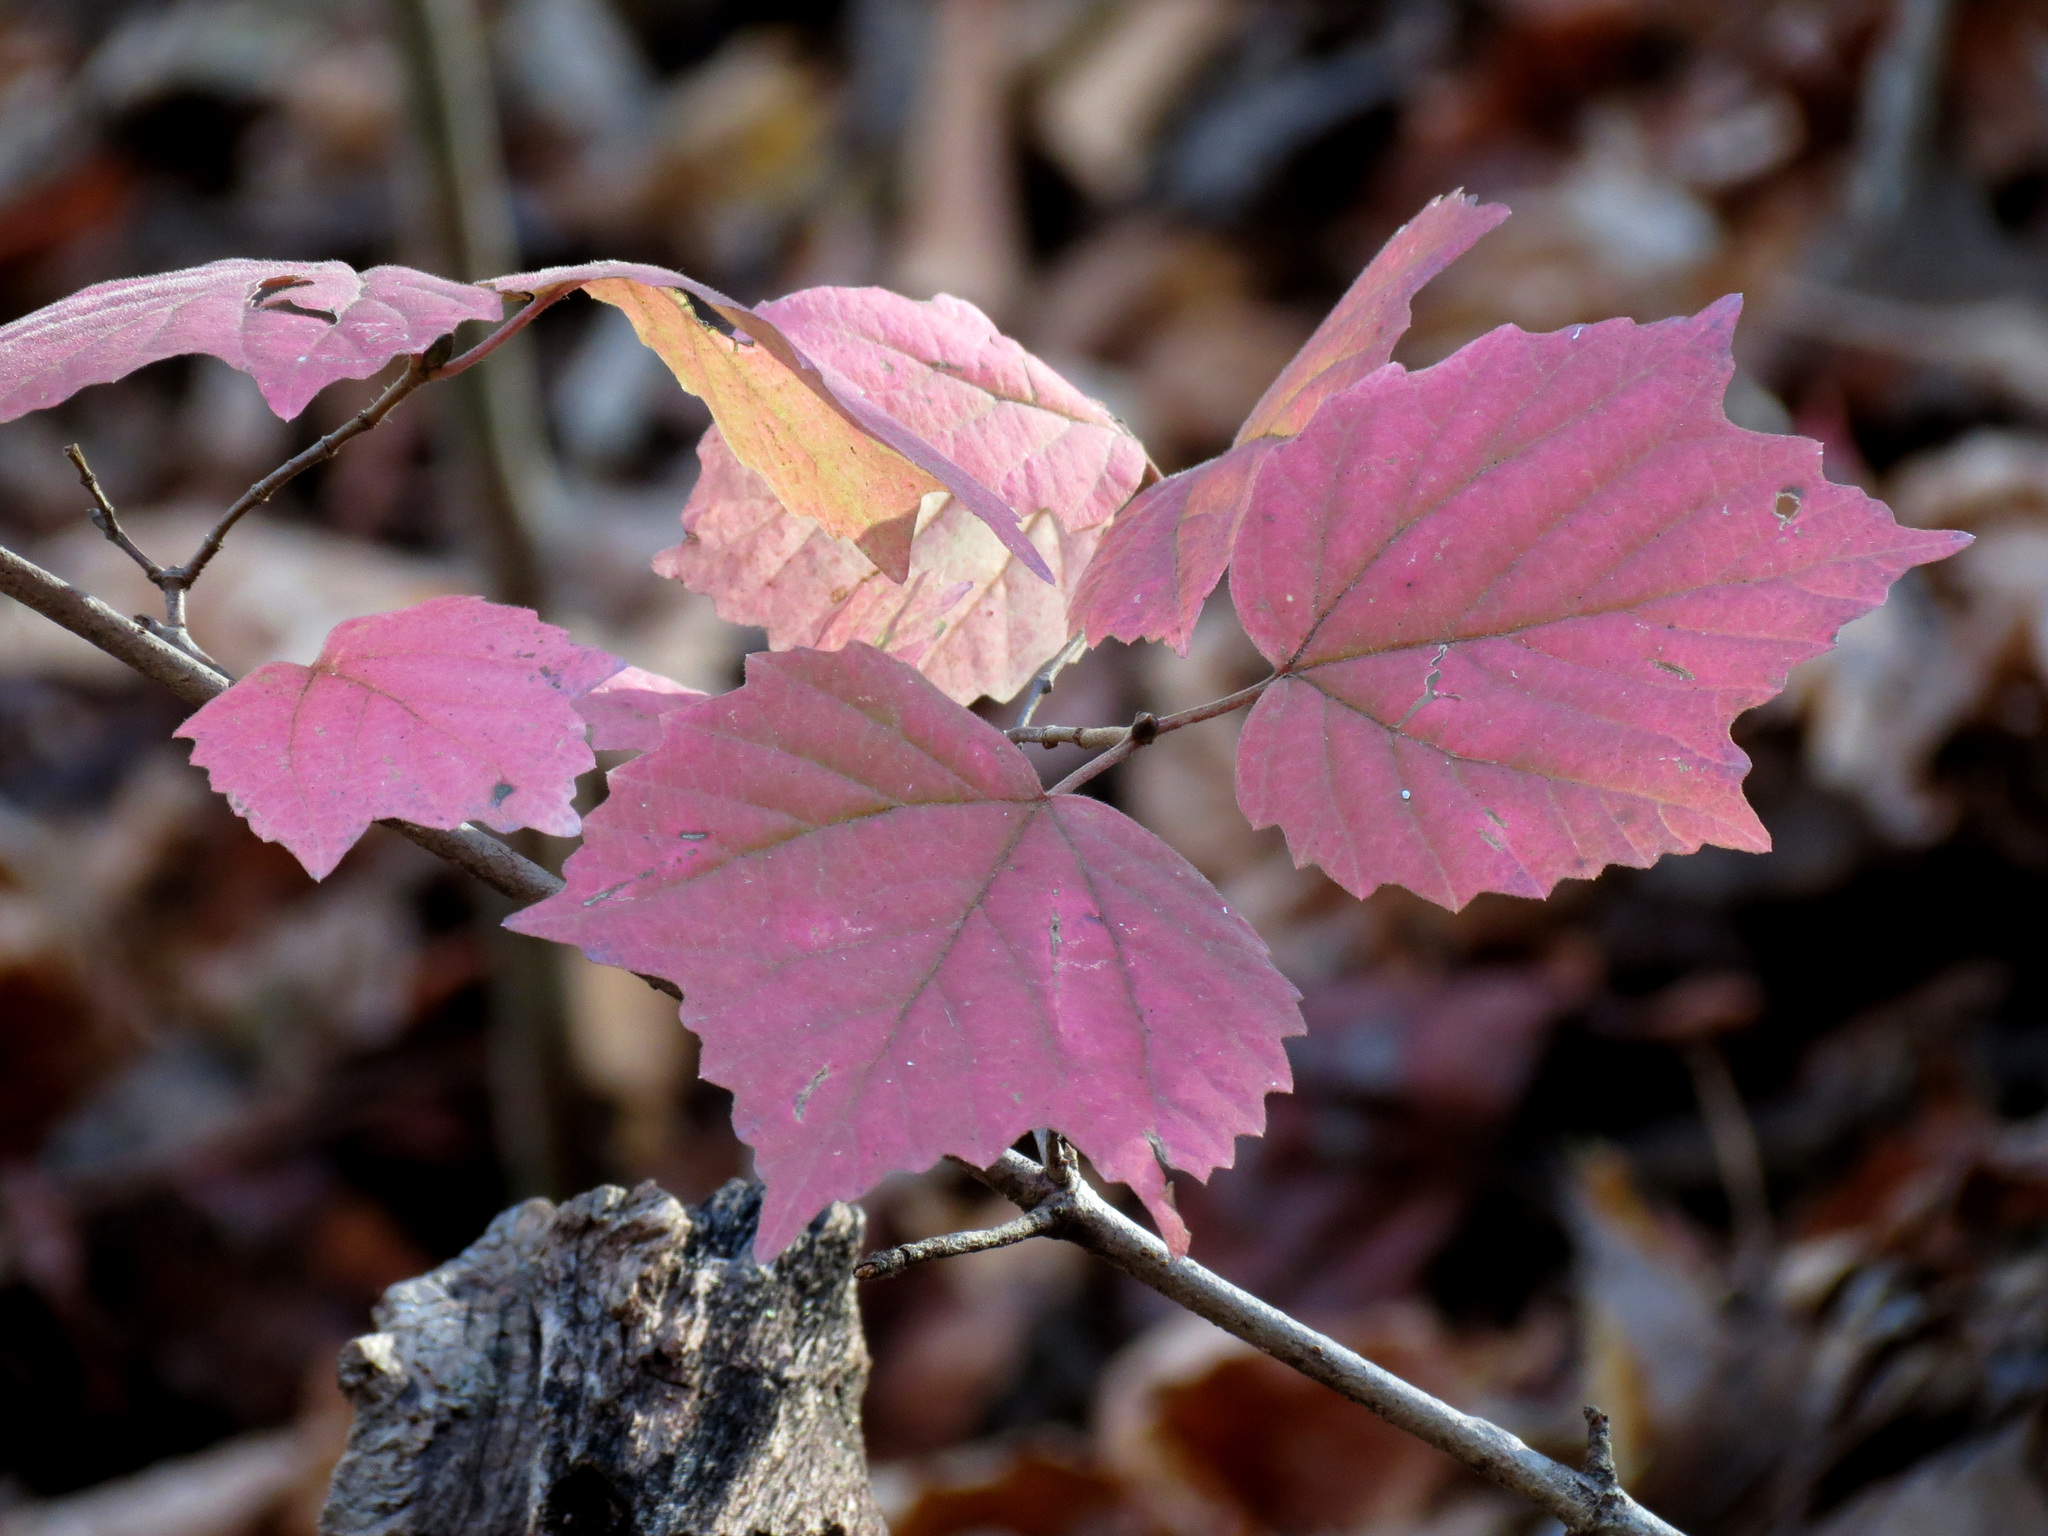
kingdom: Plantae
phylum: Tracheophyta
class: Magnoliopsida
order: Dipsacales
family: Viburnaceae
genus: Viburnum
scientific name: Viburnum acerifolium
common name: Dockmackie
